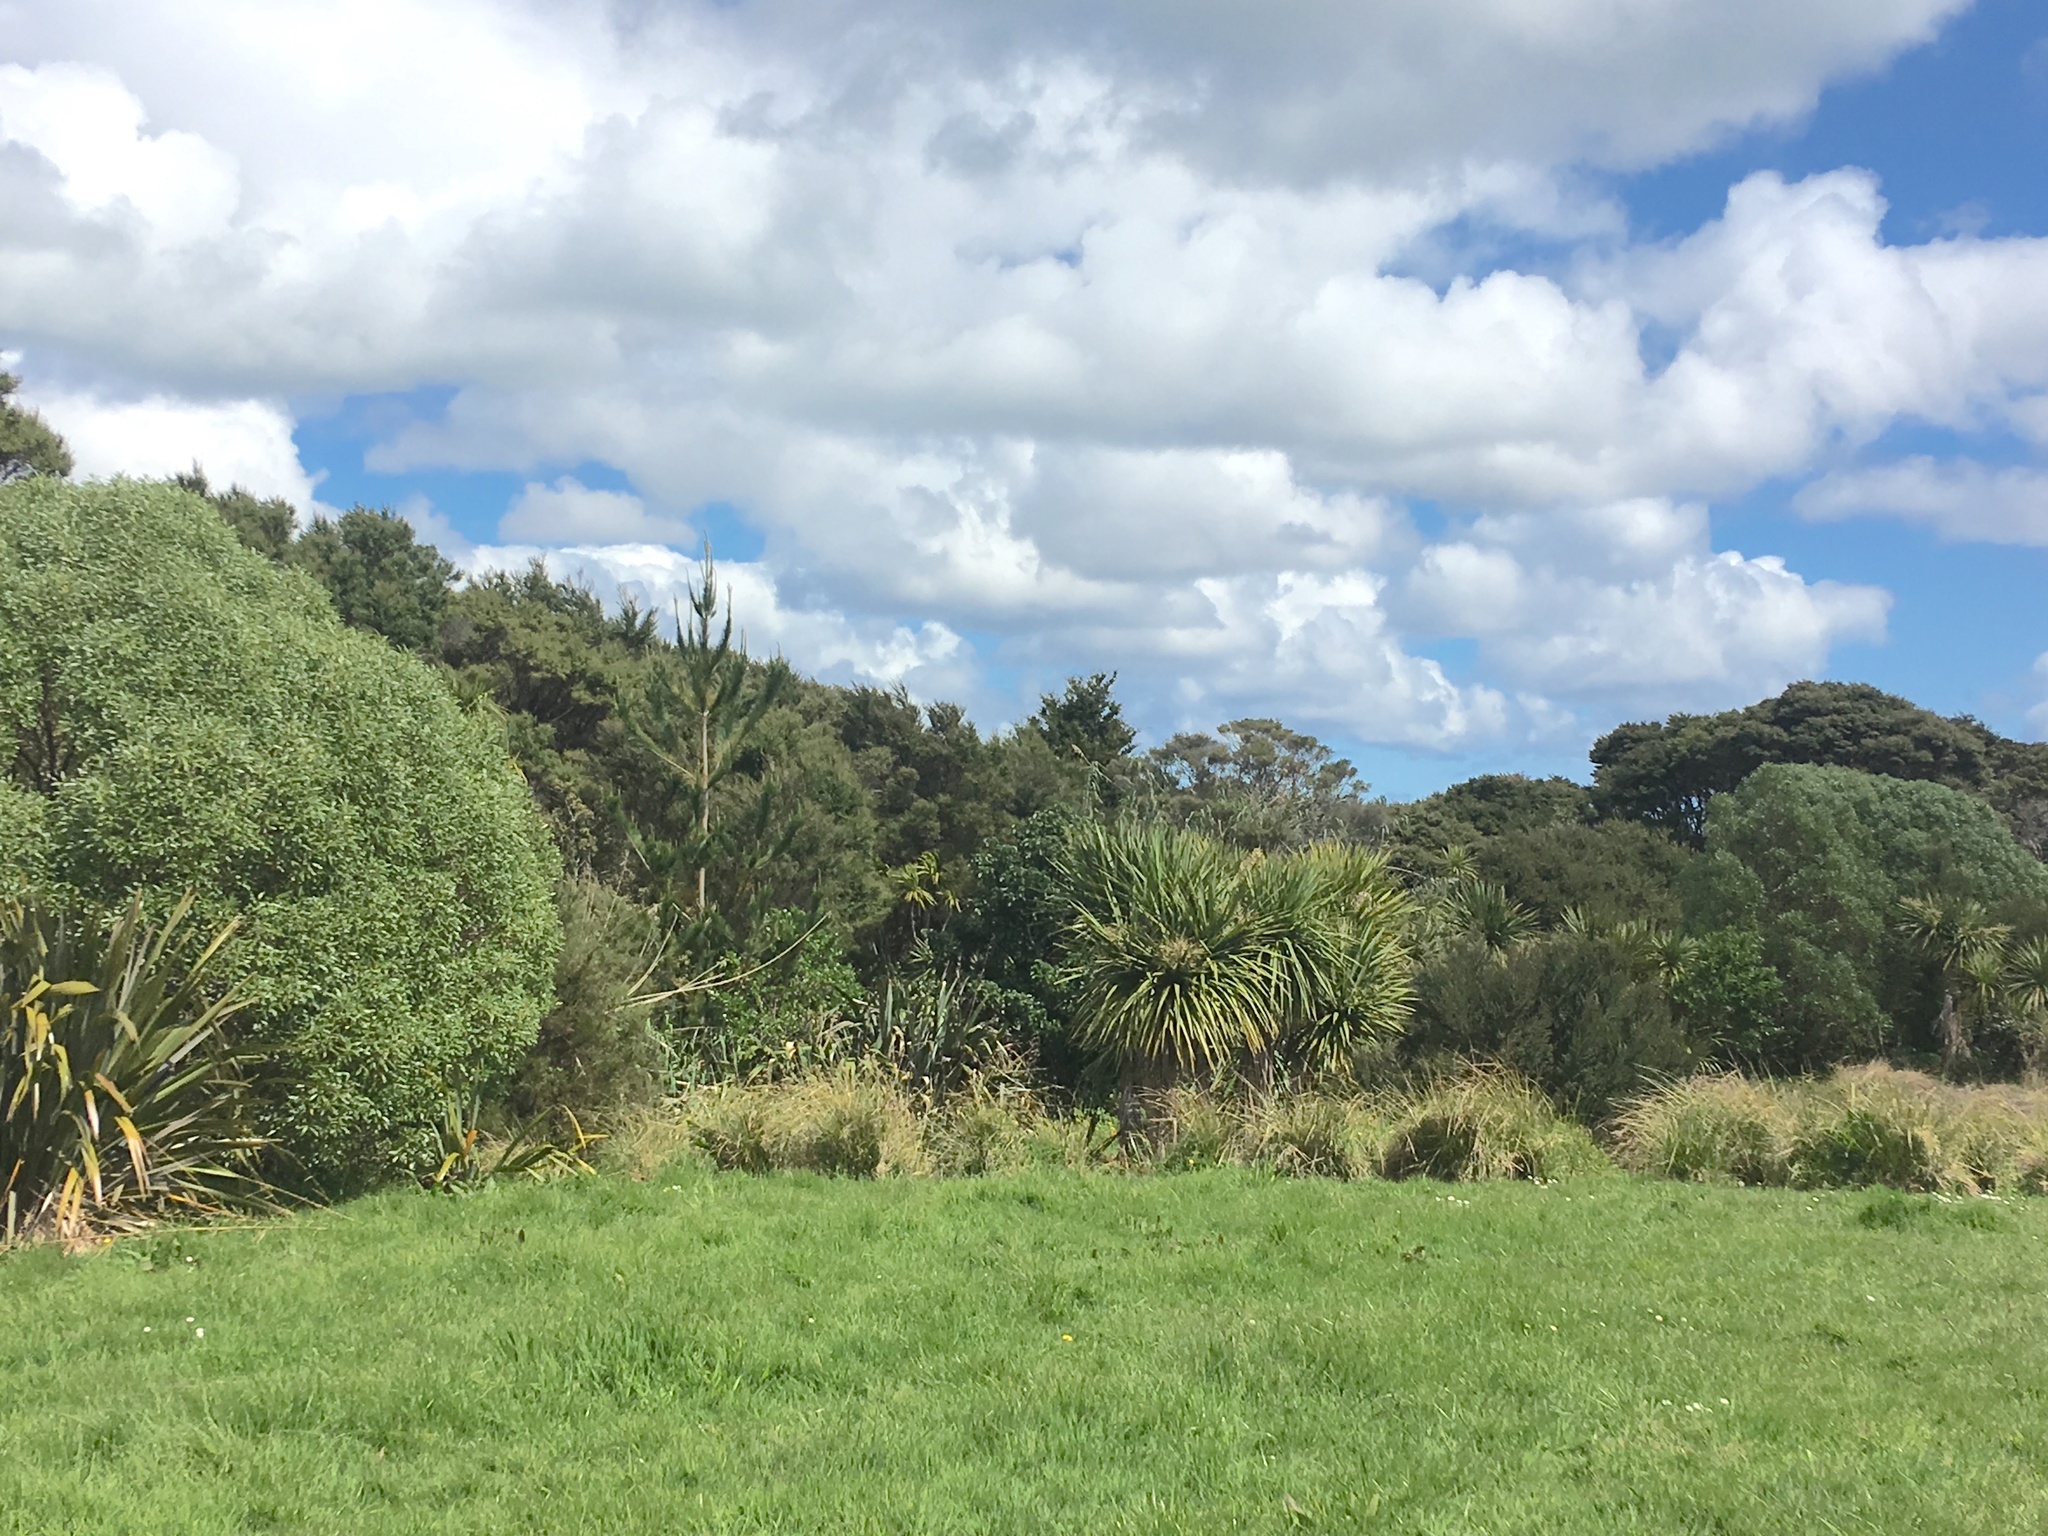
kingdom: Plantae
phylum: Tracheophyta
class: Liliopsida
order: Asparagales
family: Asparagaceae
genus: Cordyline
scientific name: Cordyline australis
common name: Cabbage-palm
